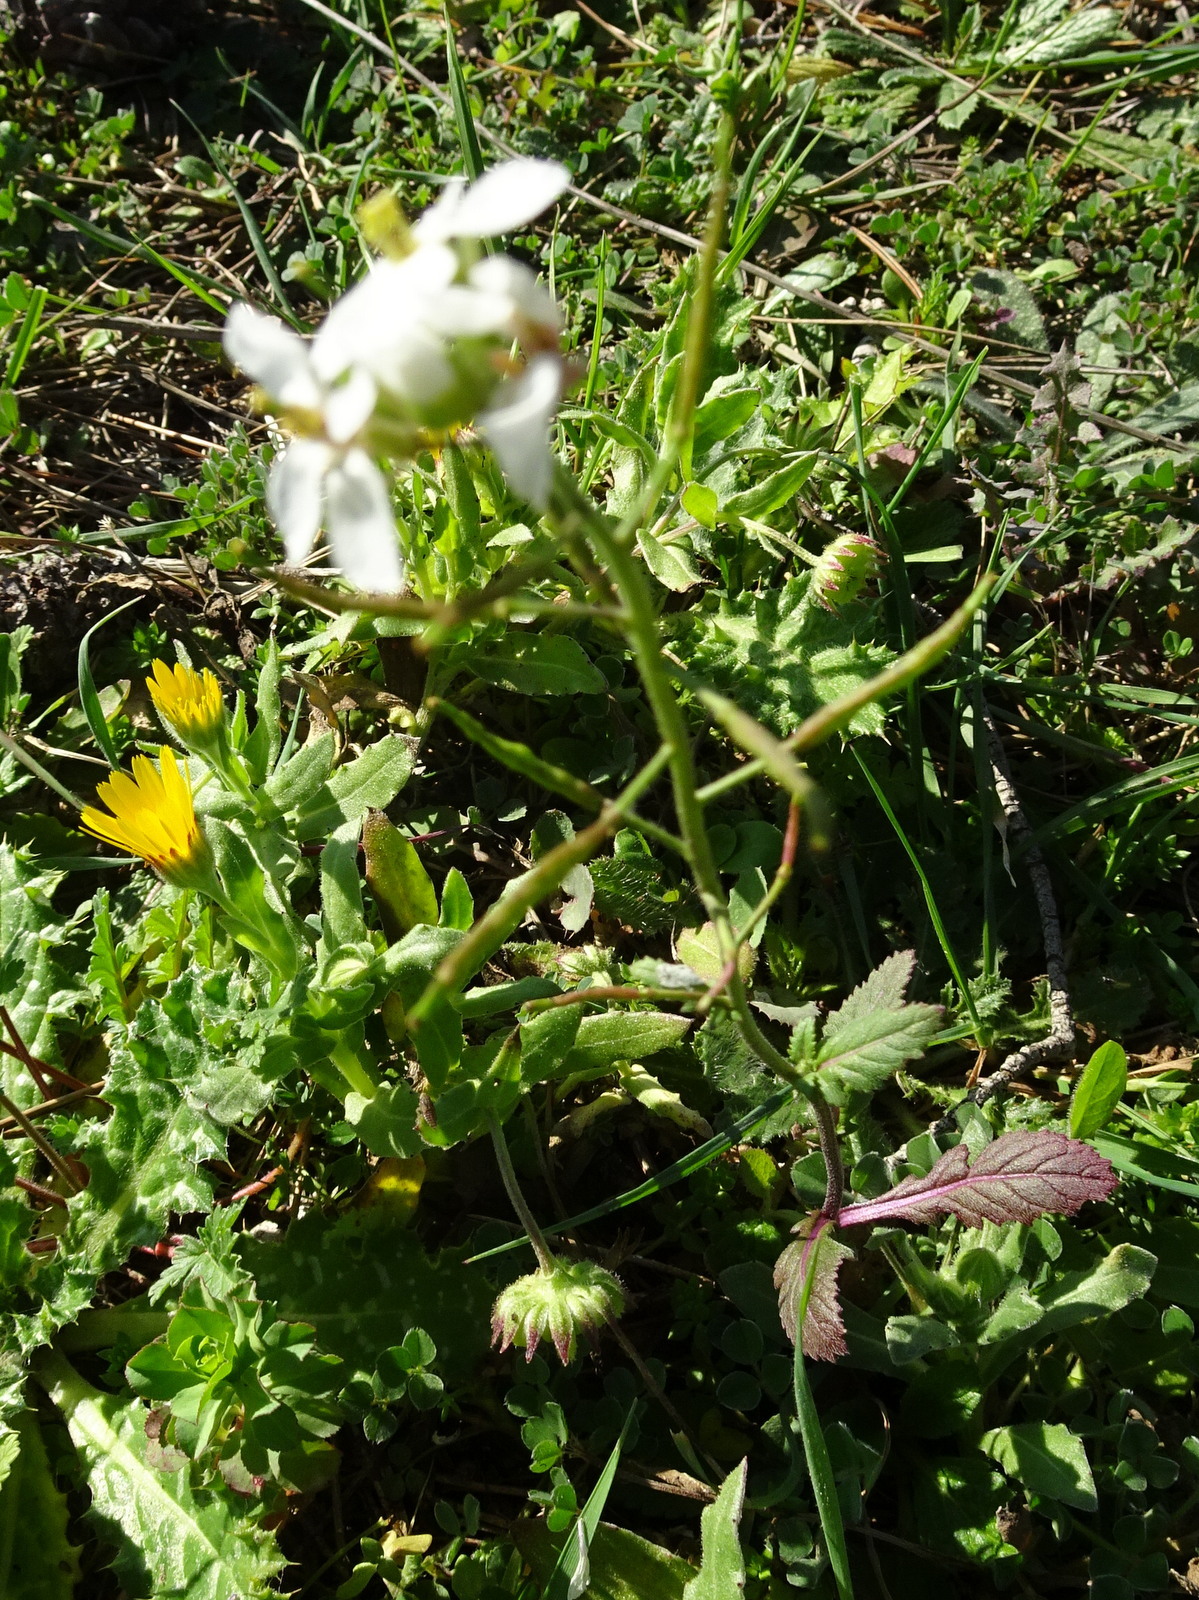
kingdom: Plantae
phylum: Tracheophyta
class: Magnoliopsida
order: Brassicales
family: Brassicaceae
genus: Diplotaxis
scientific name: Diplotaxis erucoides
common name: White rocket
